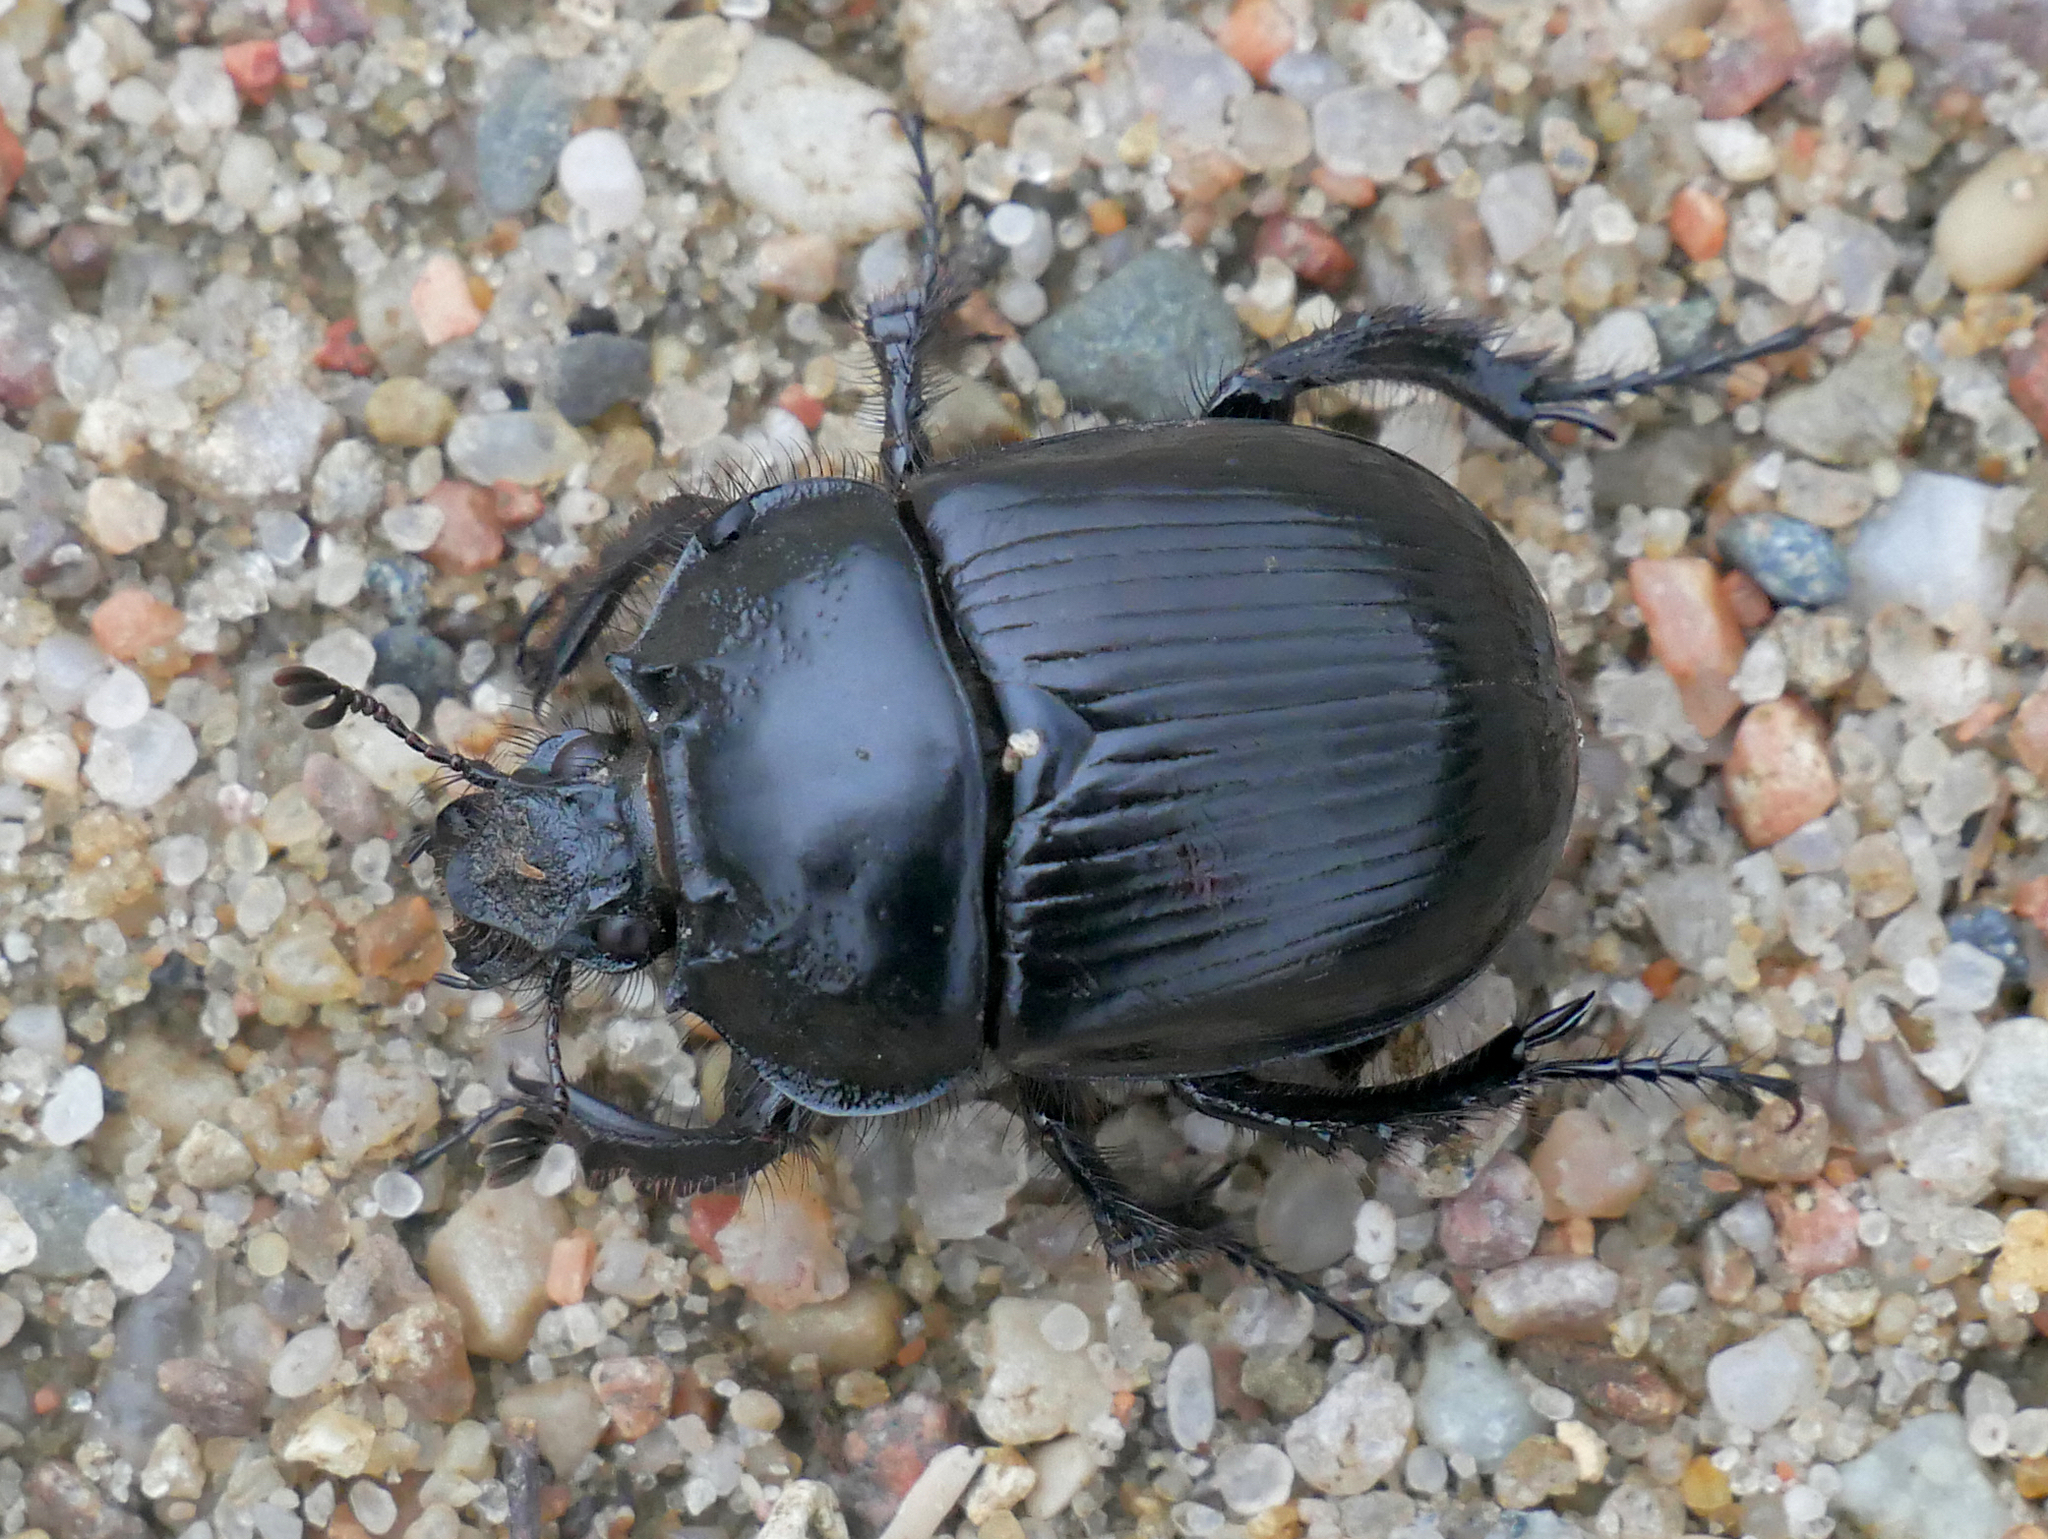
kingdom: Animalia
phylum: Arthropoda
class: Insecta
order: Coleoptera
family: Geotrupidae
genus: Typhaeus
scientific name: Typhaeus typhoeus
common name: Minotaur beetle
